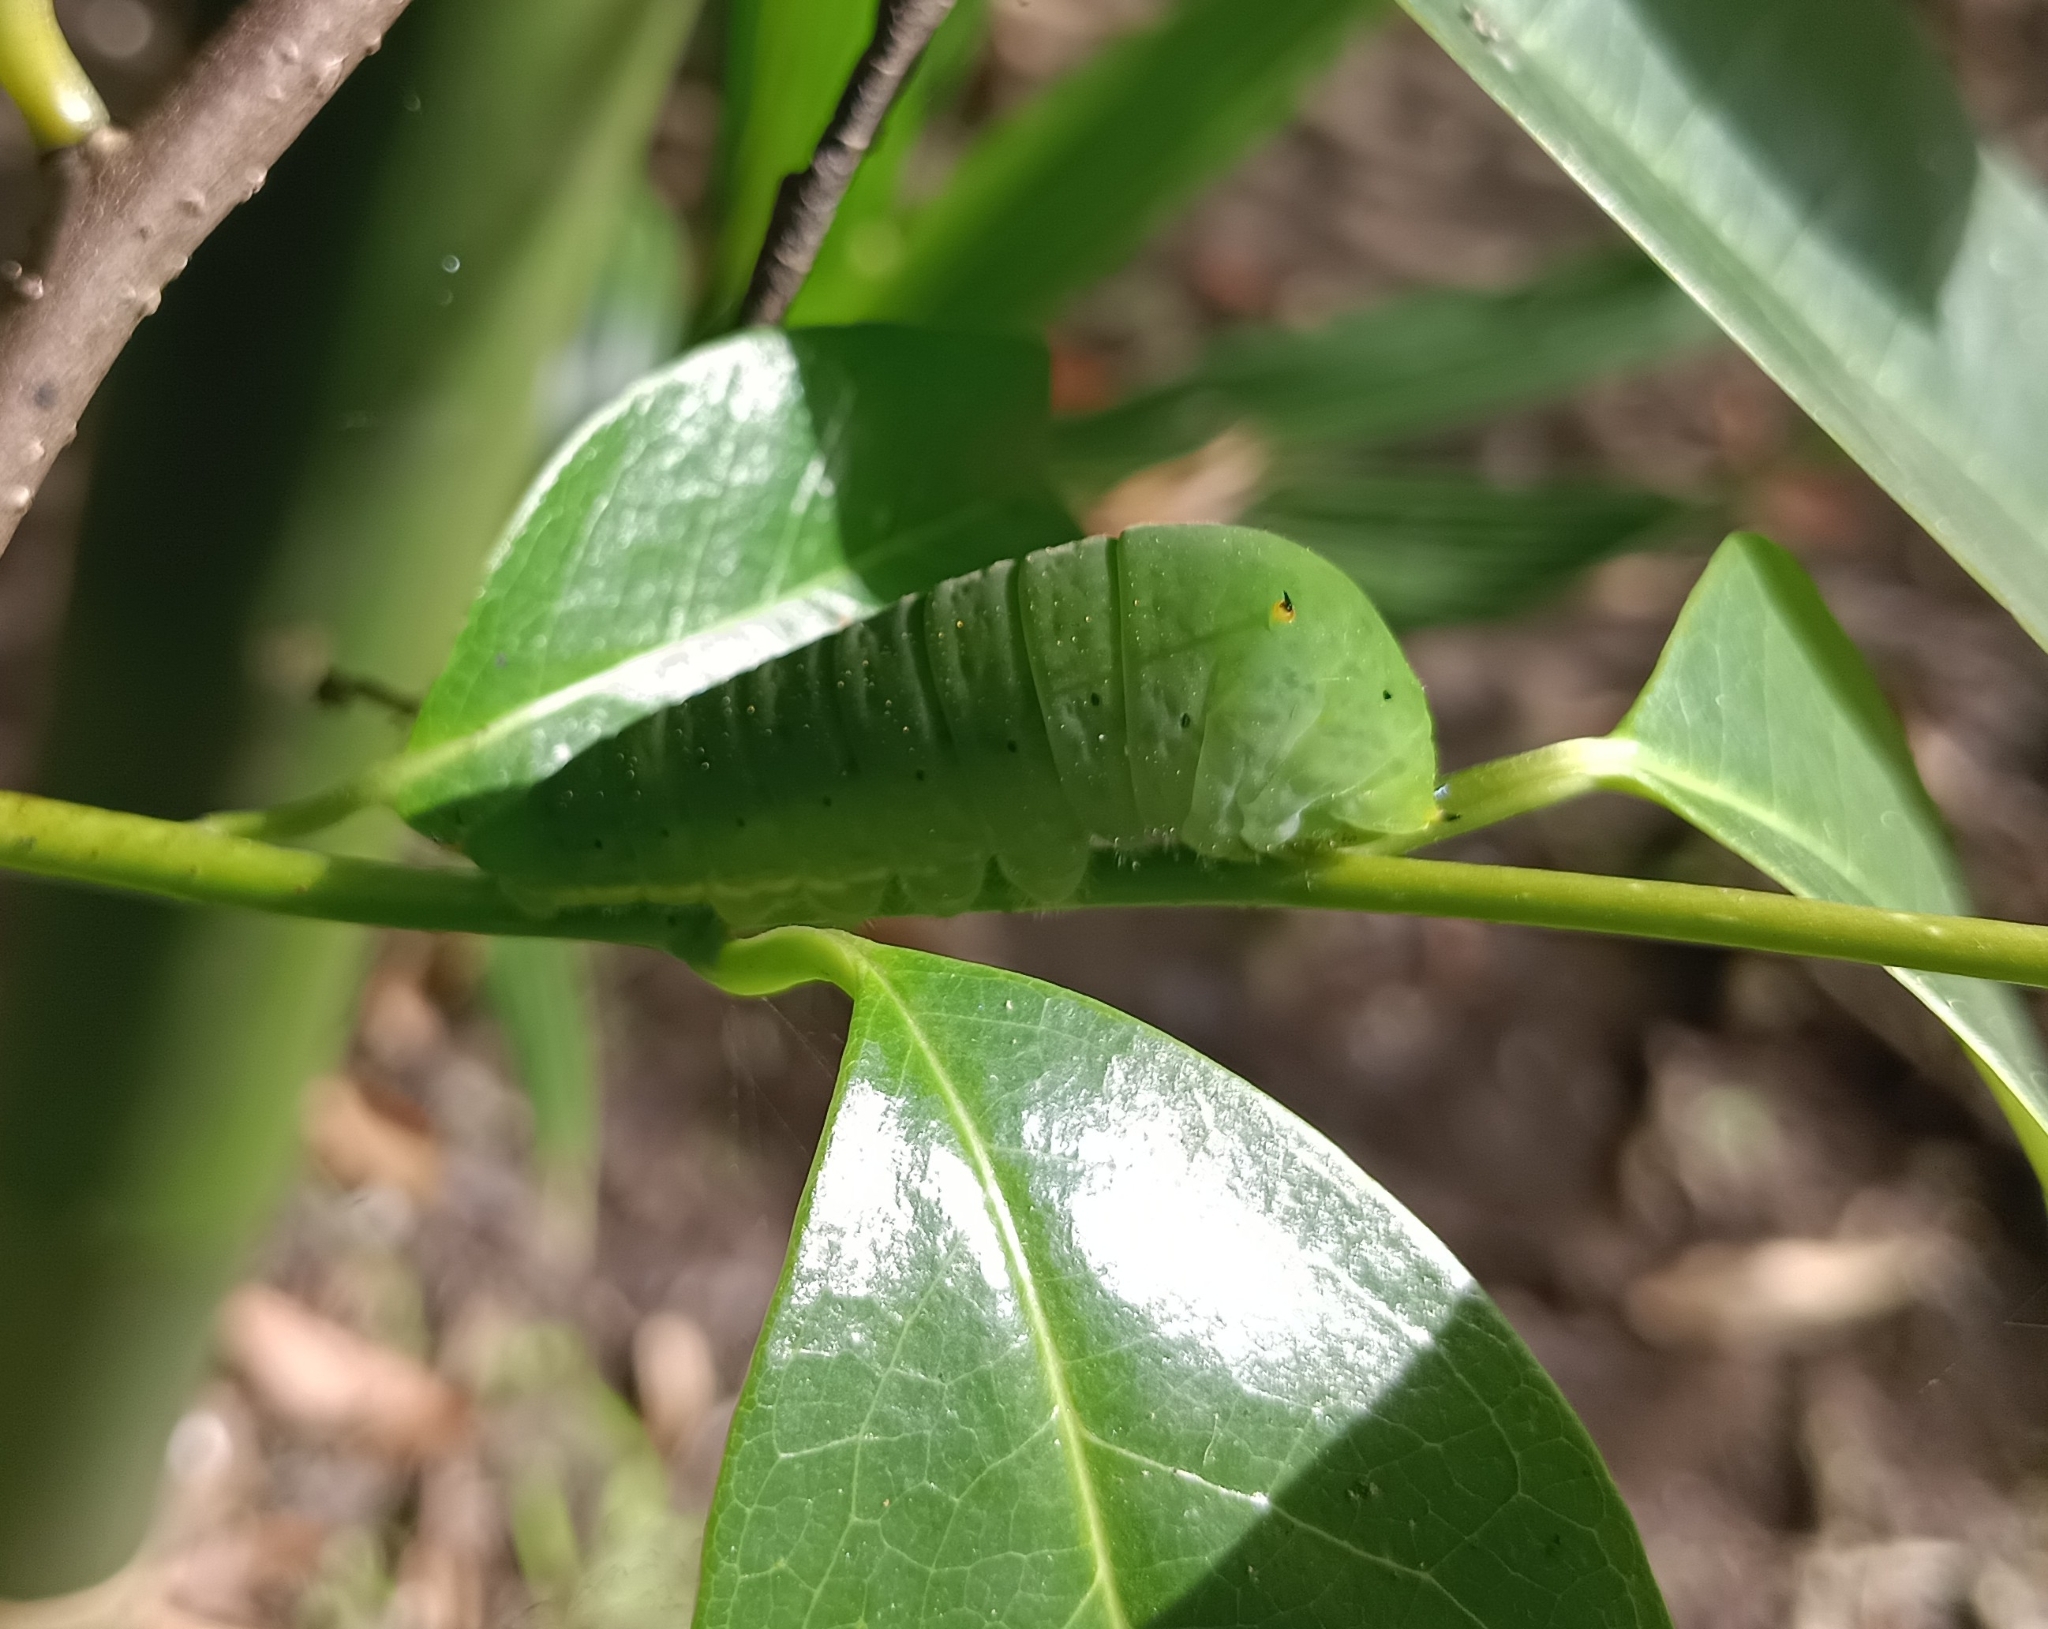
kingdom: Animalia
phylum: Arthropoda
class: Insecta
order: Lepidoptera
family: Papilionidae
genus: Graphium
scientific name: Graphium agamemnon
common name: Tailed jay
